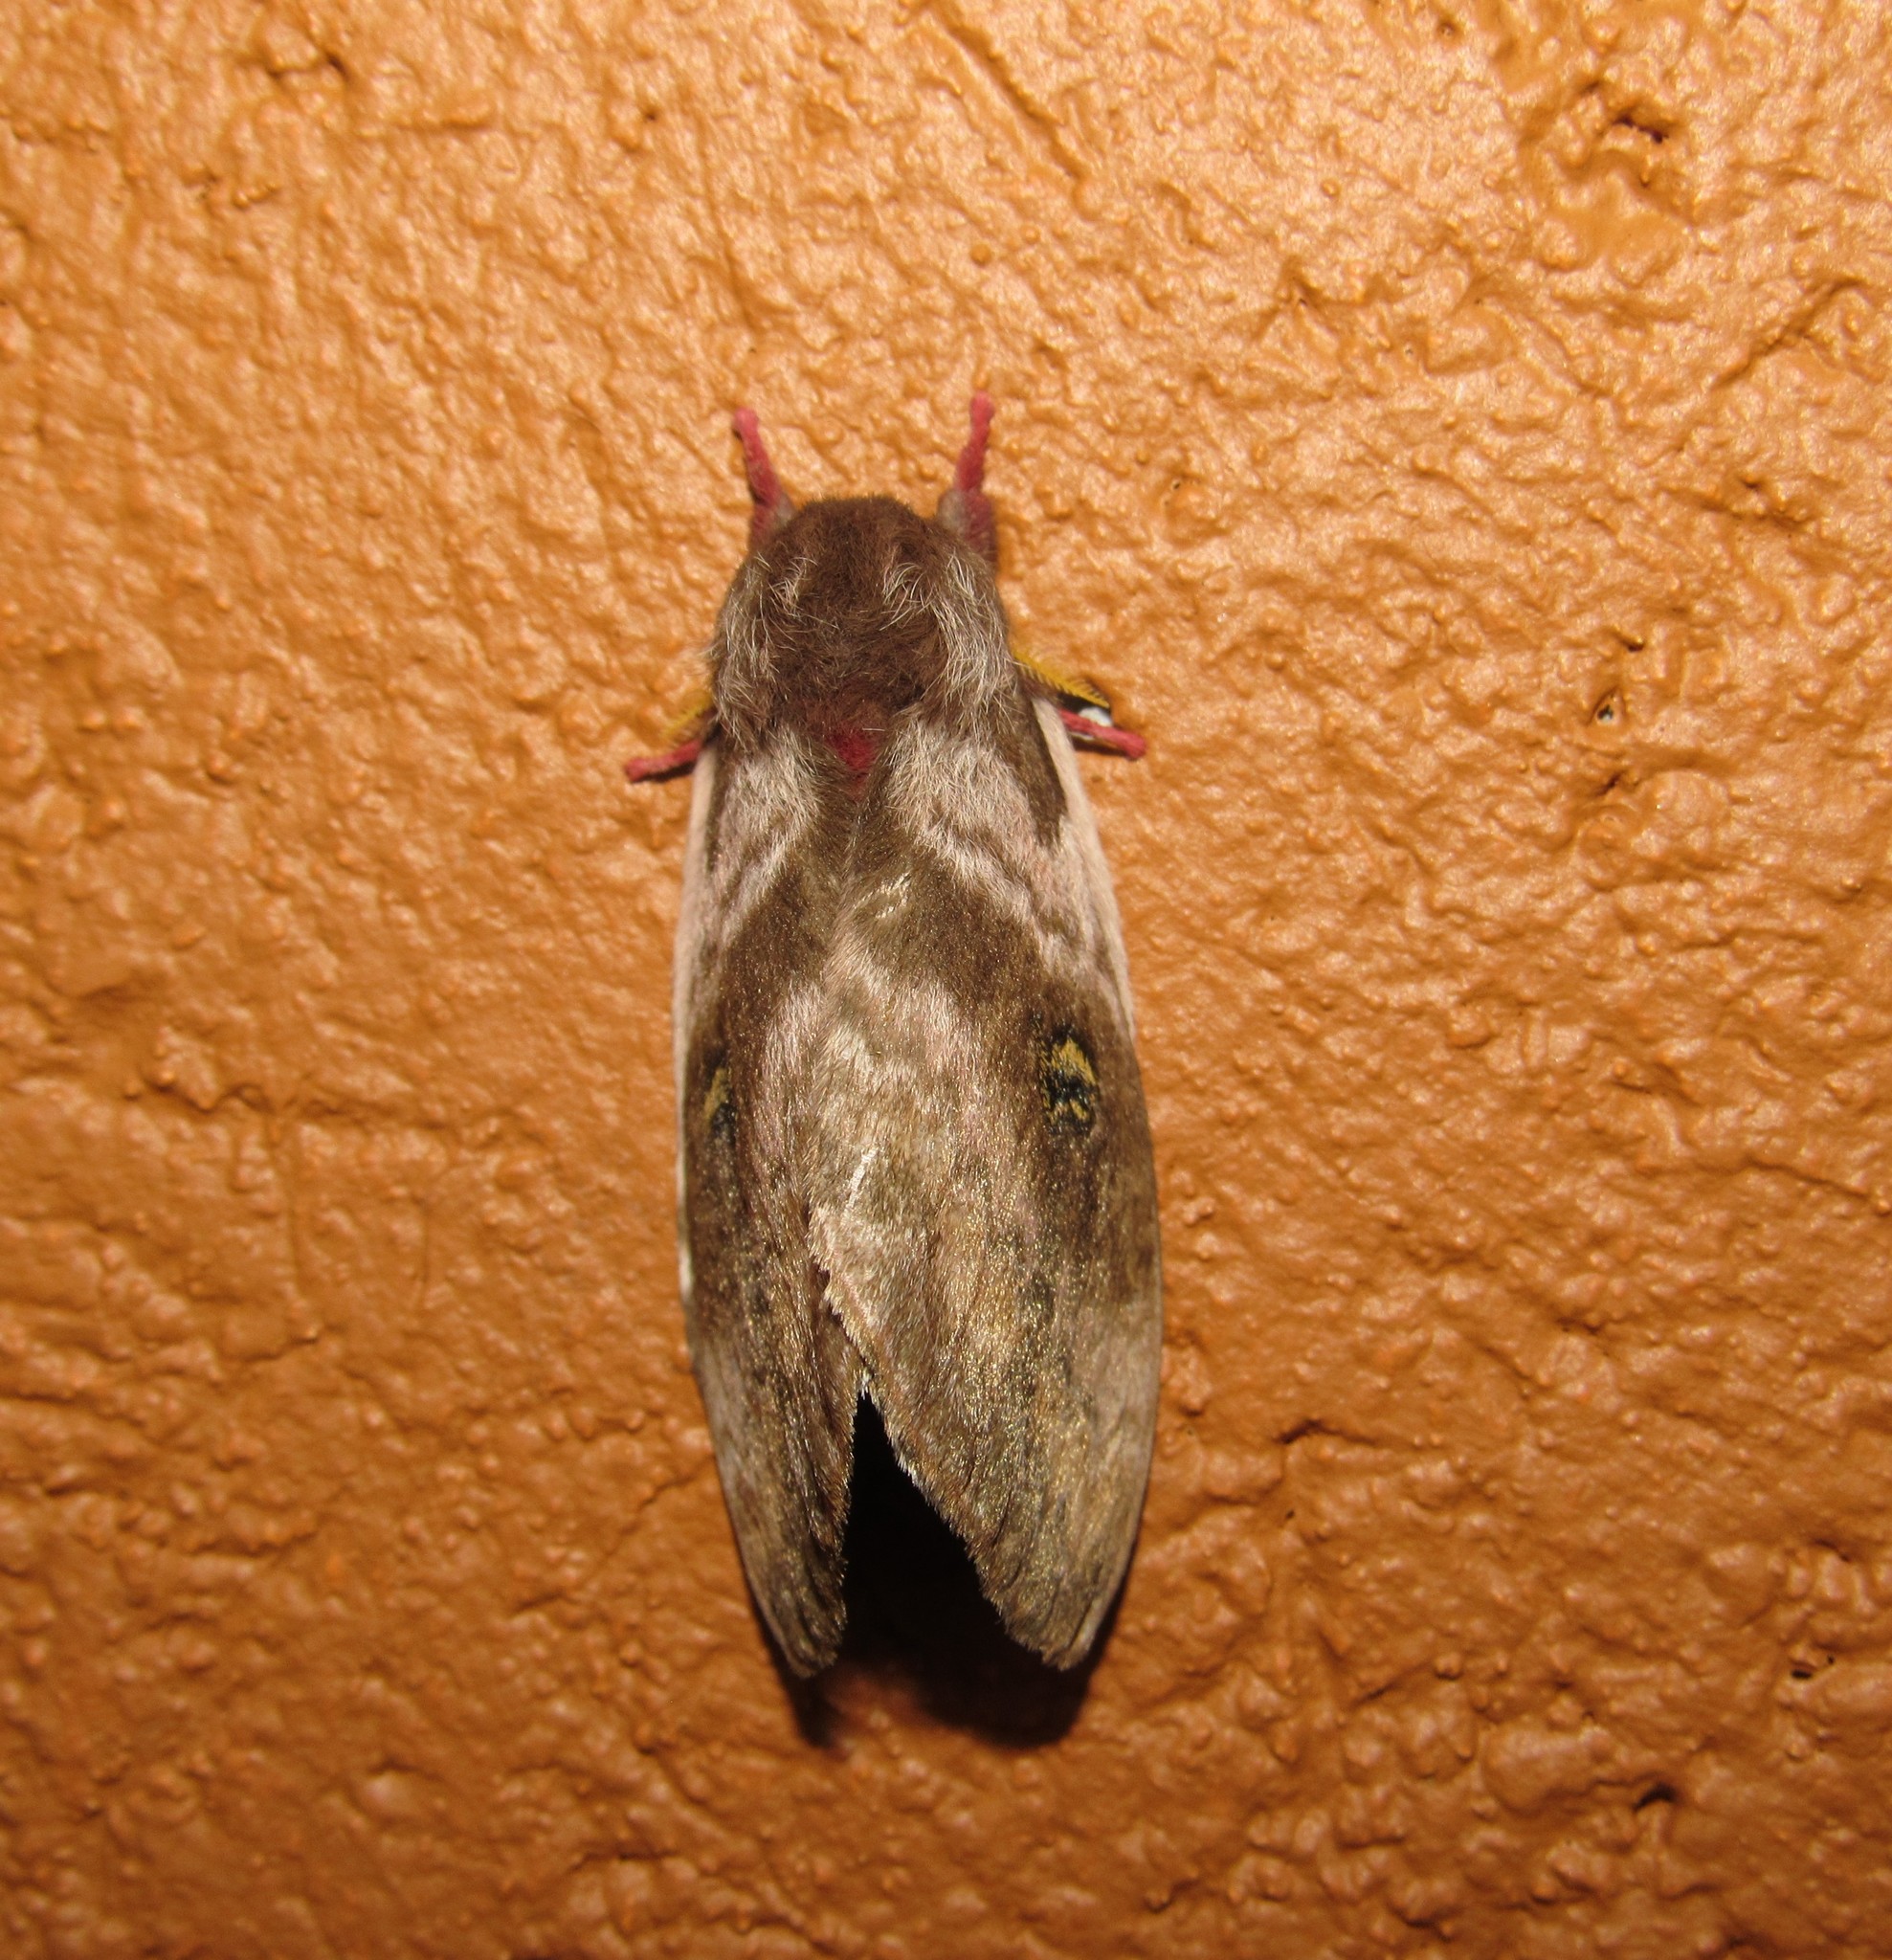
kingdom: Animalia
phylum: Arthropoda
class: Insecta
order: Lepidoptera
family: Saturniidae
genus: Hidripa
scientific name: Hidripa taglia
